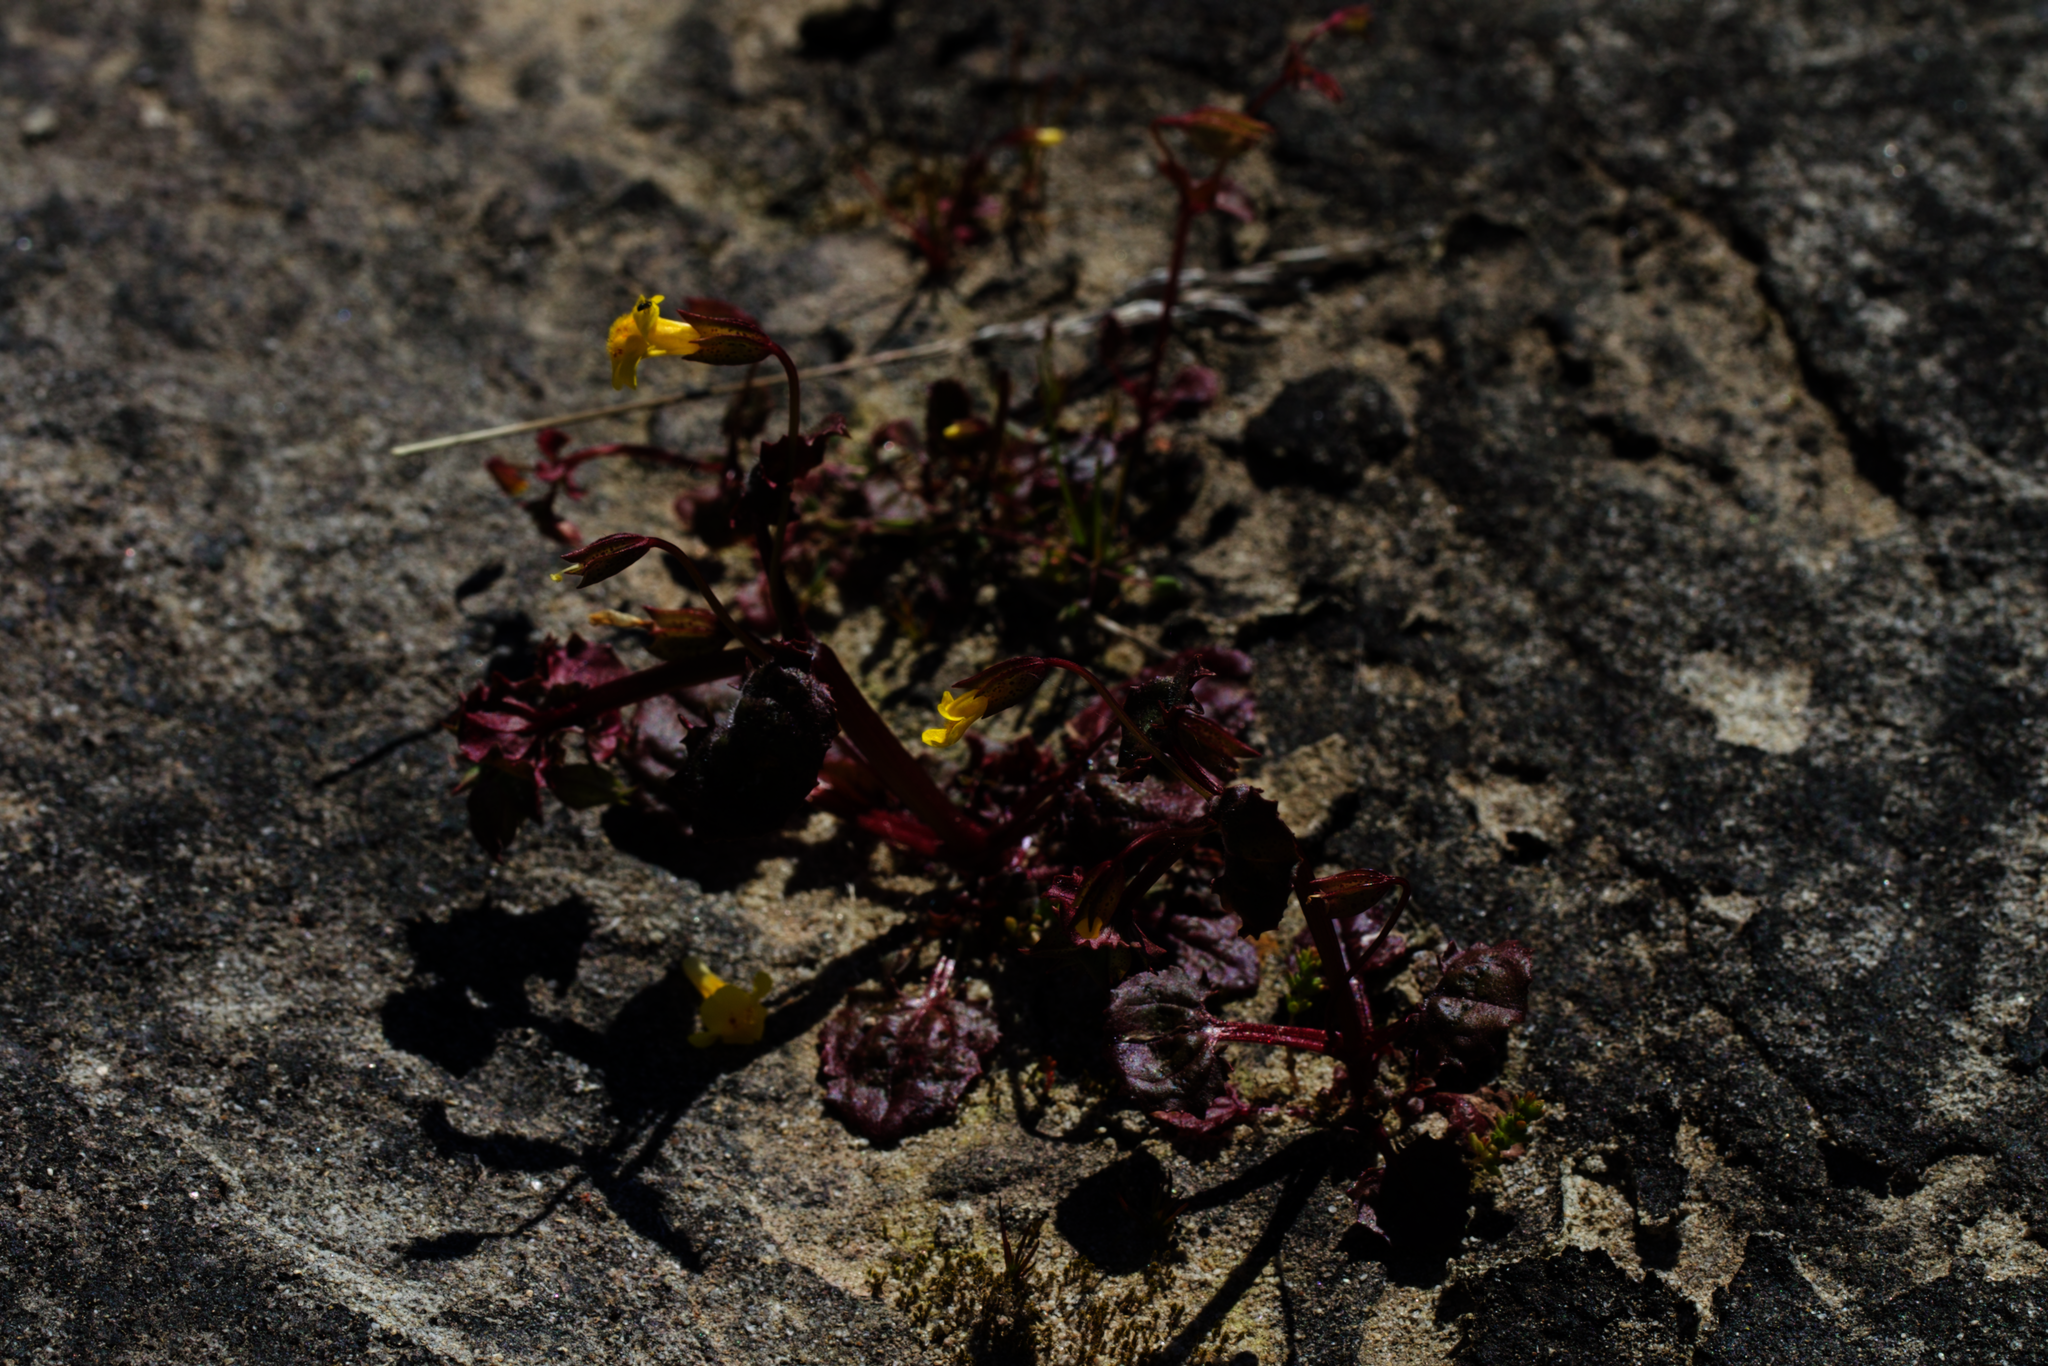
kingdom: Plantae
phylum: Tracheophyta
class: Magnoliopsida
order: Lamiales
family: Phrymaceae
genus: Erythranthe
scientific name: Erythranthe nasuta
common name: Sooke monkeyflower
